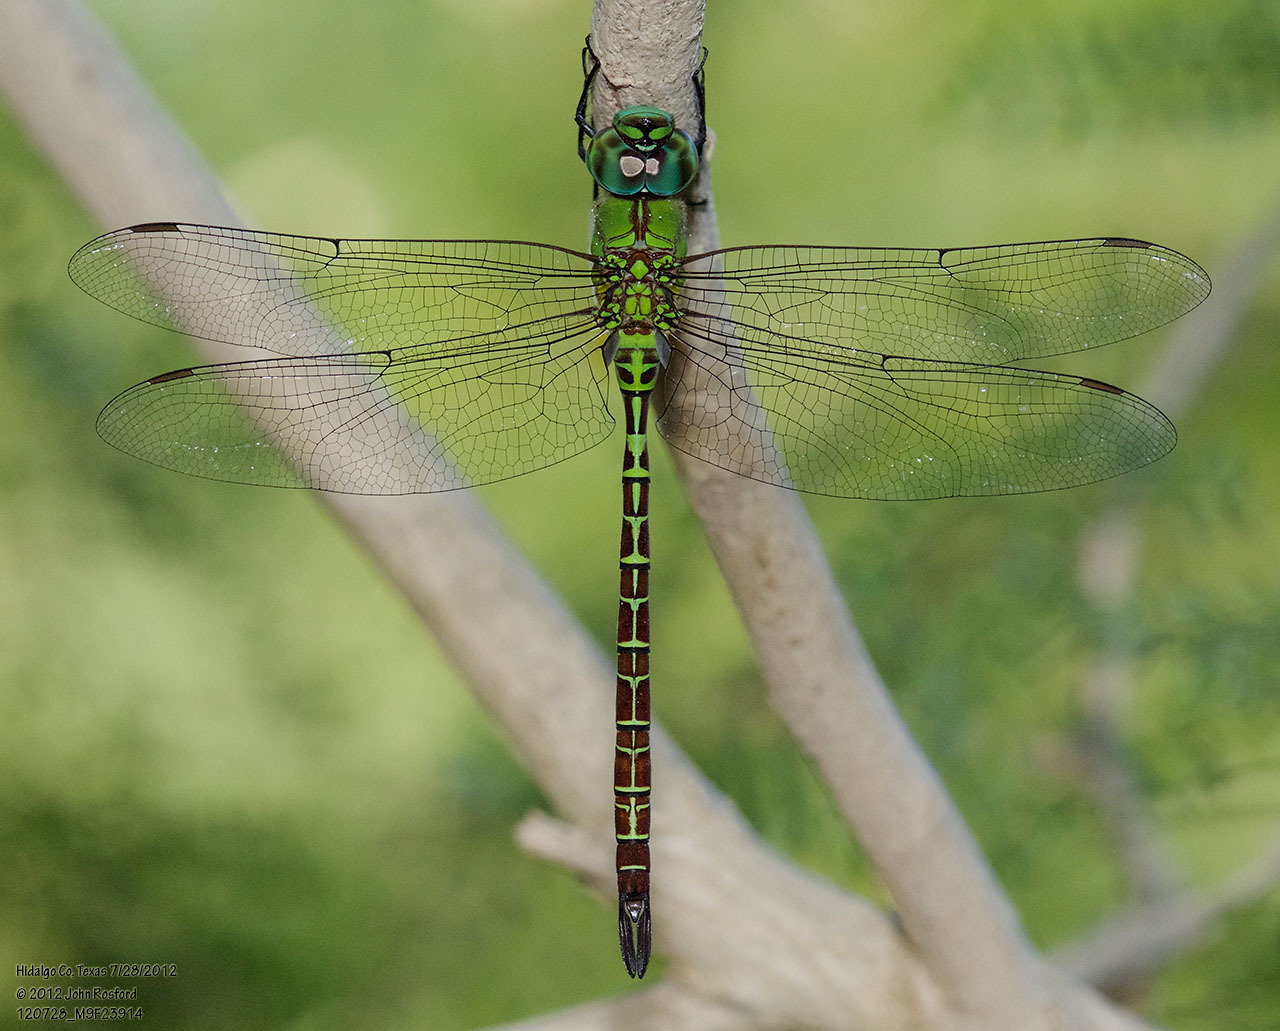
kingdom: Animalia
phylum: Arthropoda
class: Insecta
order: Odonata
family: Aeshnidae
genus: Coryphaeschna
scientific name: Coryphaeschna adnexa
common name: Blue-faced darner
